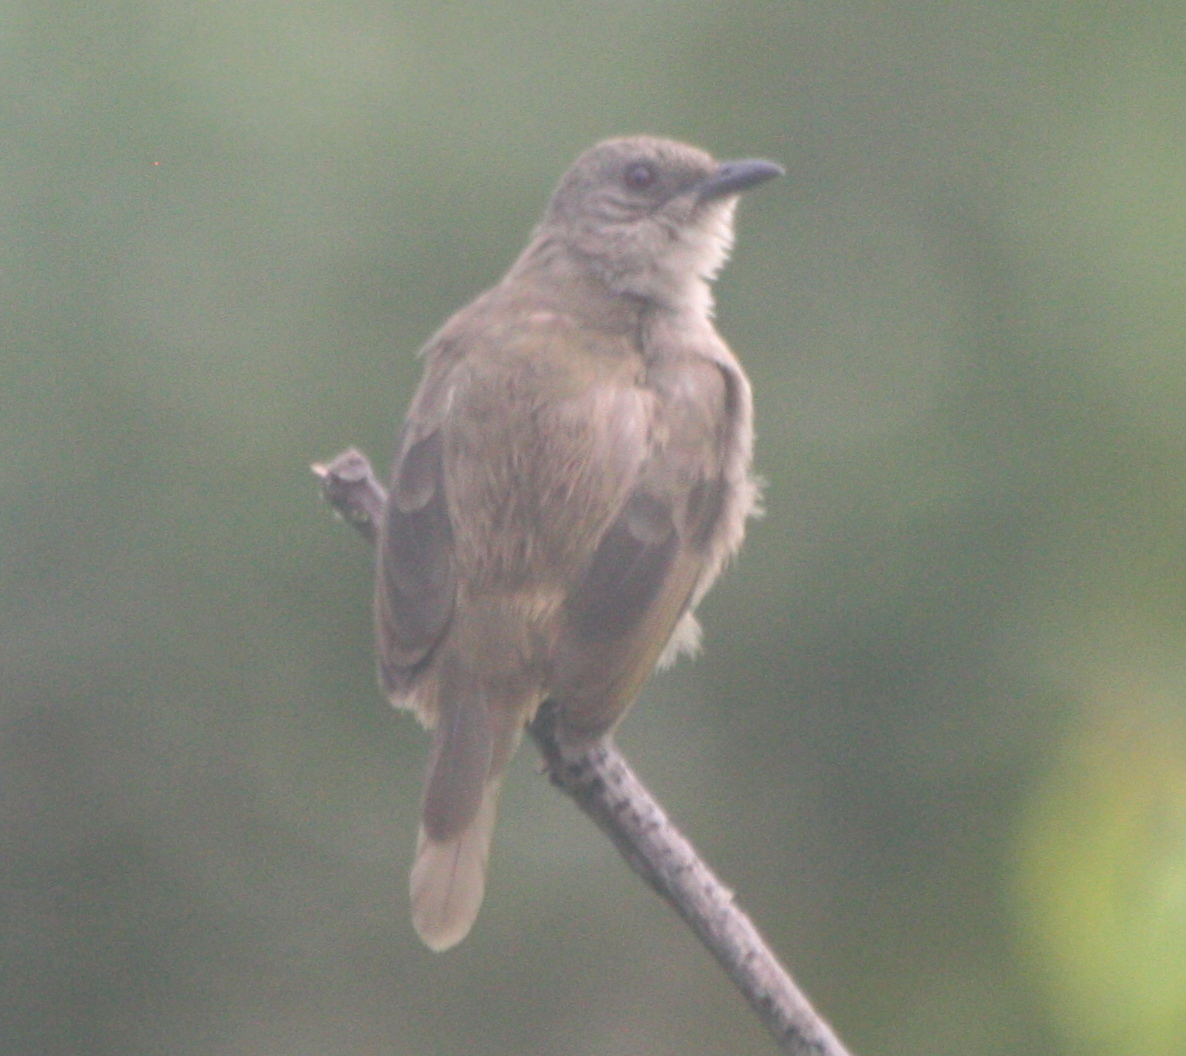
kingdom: Animalia
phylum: Chordata
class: Aves
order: Passeriformes
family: Pycnonotidae
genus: Pycnonotus
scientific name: Pycnonotus plumosus
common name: Olive-winged bulbul
